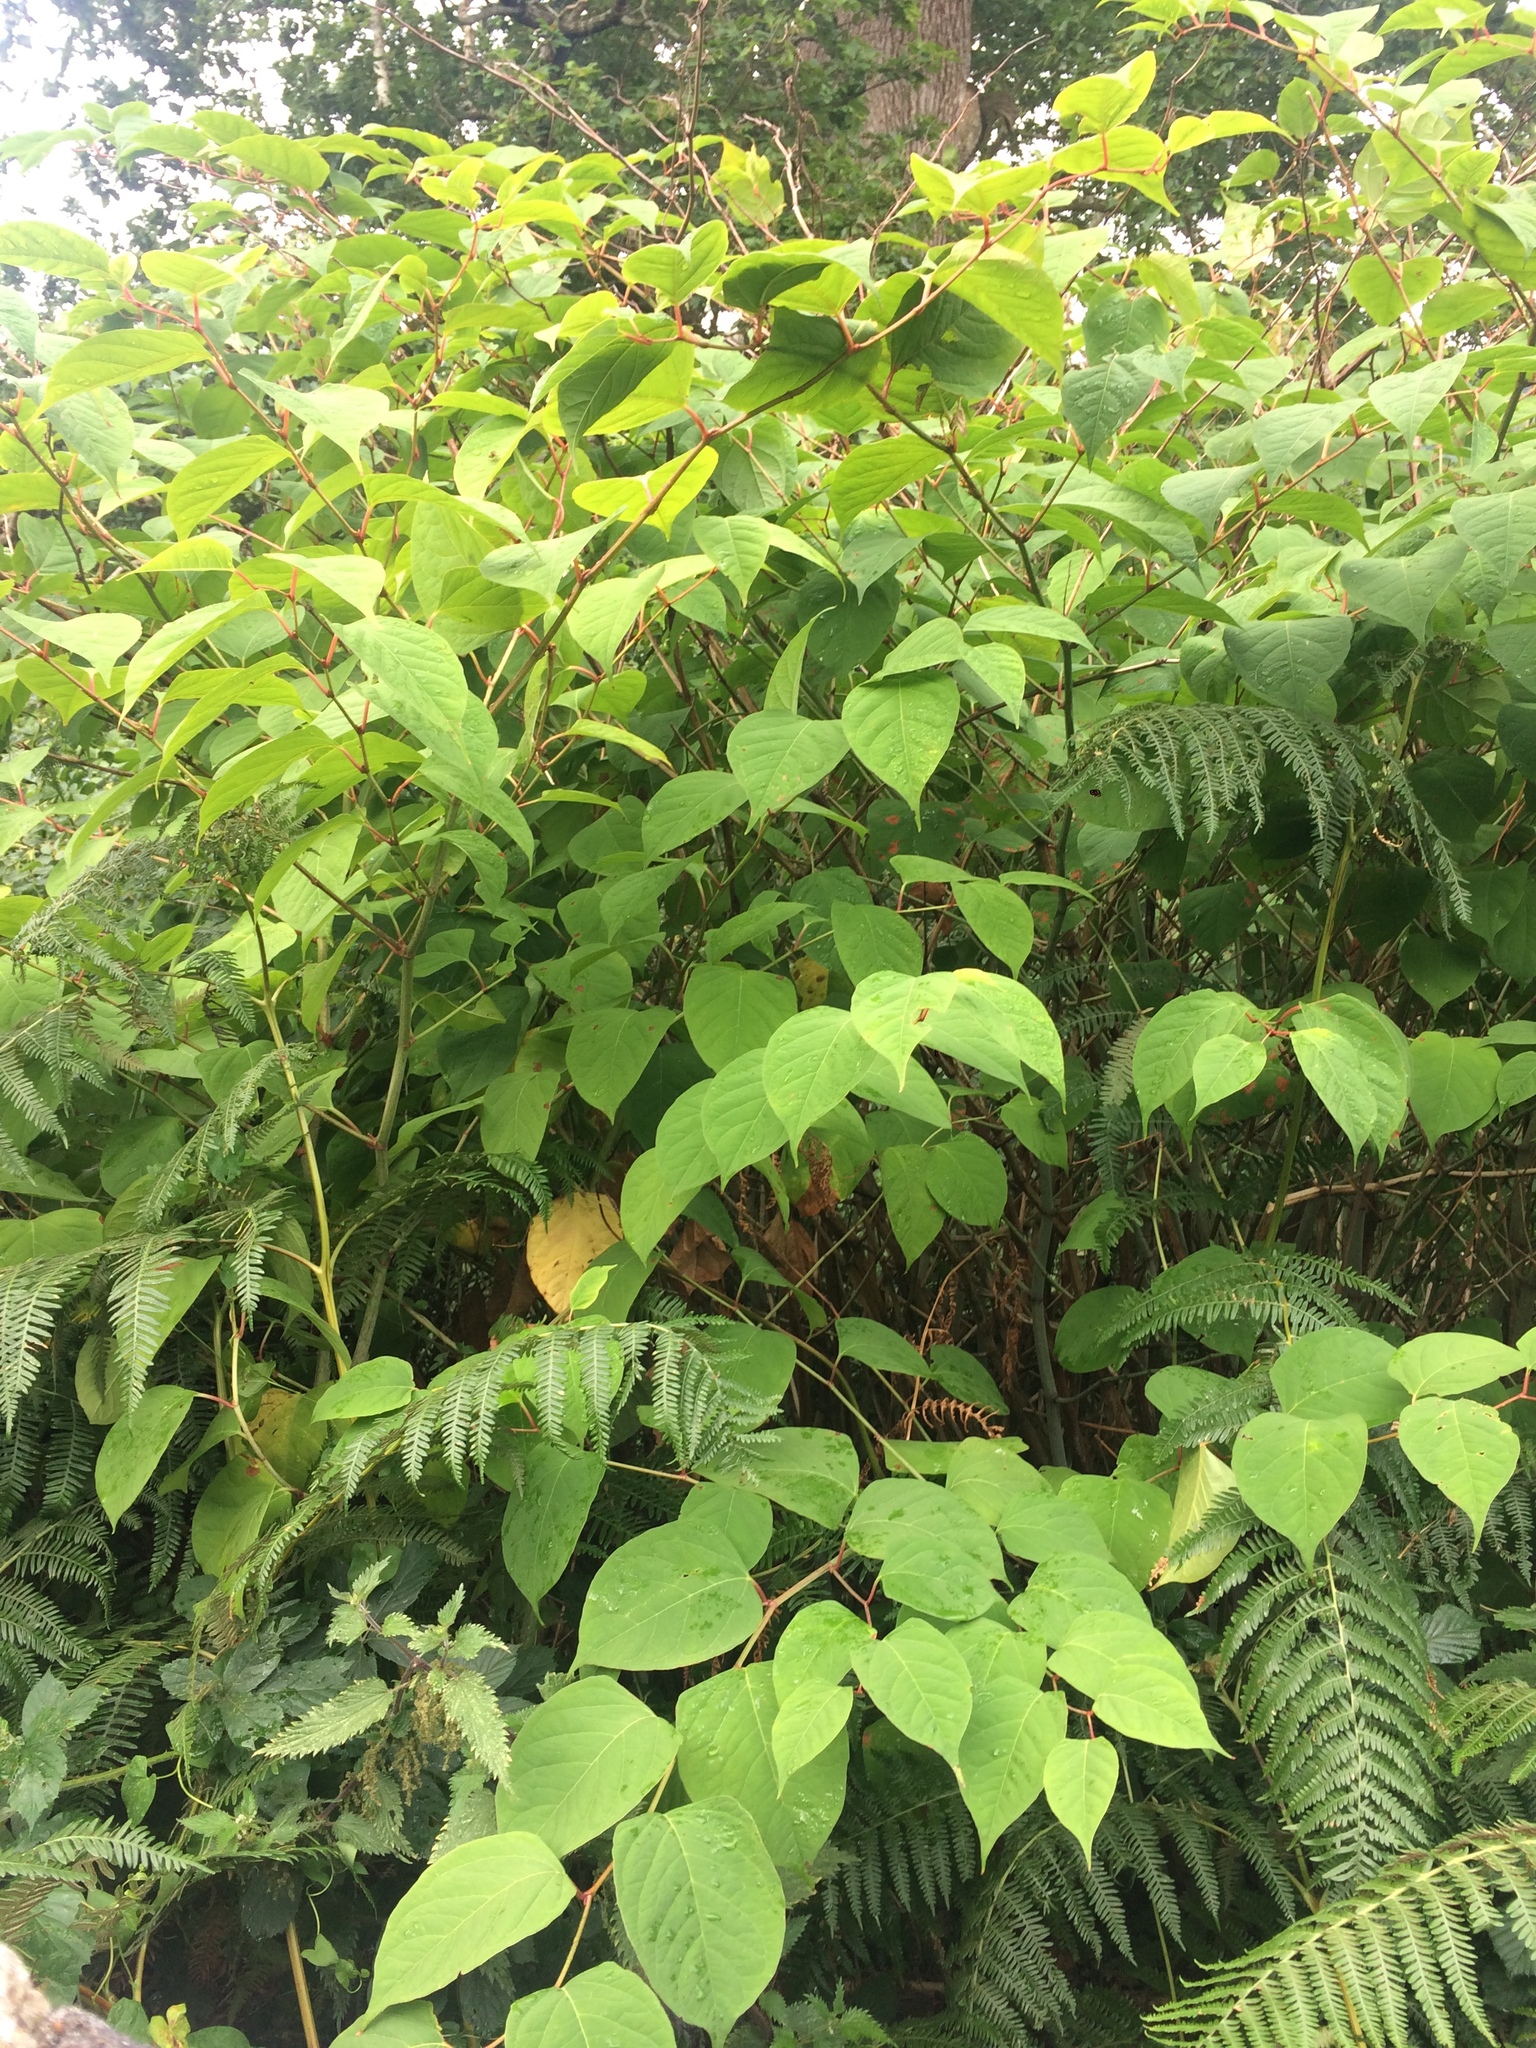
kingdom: Plantae
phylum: Tracheophyta
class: Magnoliopsida
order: Caryophyllales
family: Polygonaceae
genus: Reynoutria
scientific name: Reynoutria japonica
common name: Japanese knotweed
